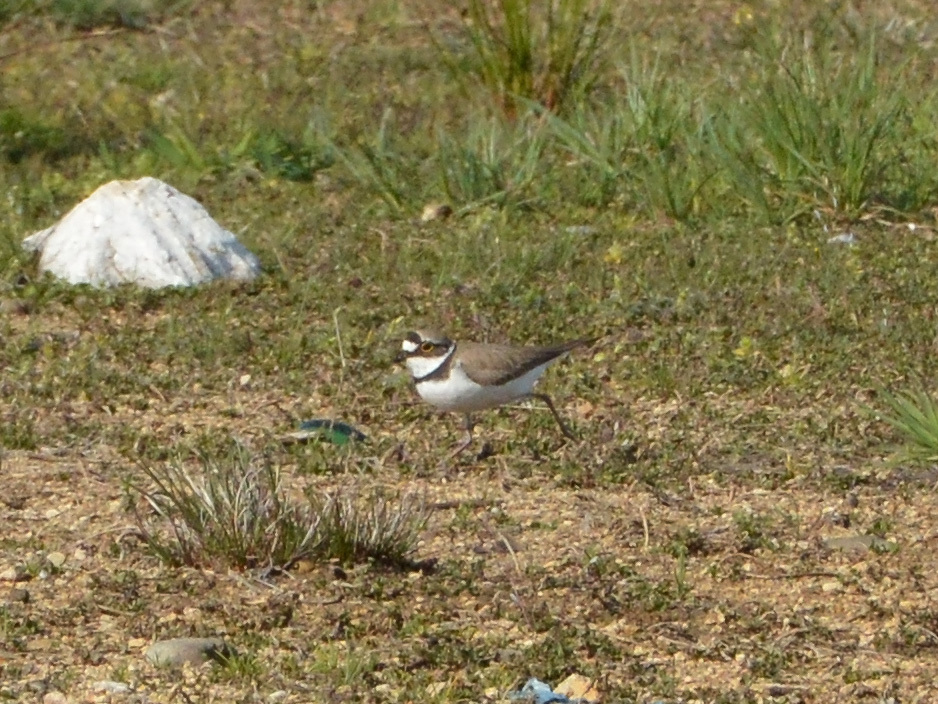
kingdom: Animalia
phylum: Chordata
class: Aves
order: Charadriiformes
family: Charadriidae
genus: Charadrius
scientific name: Charadrius dubius
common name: Little ringed plover
